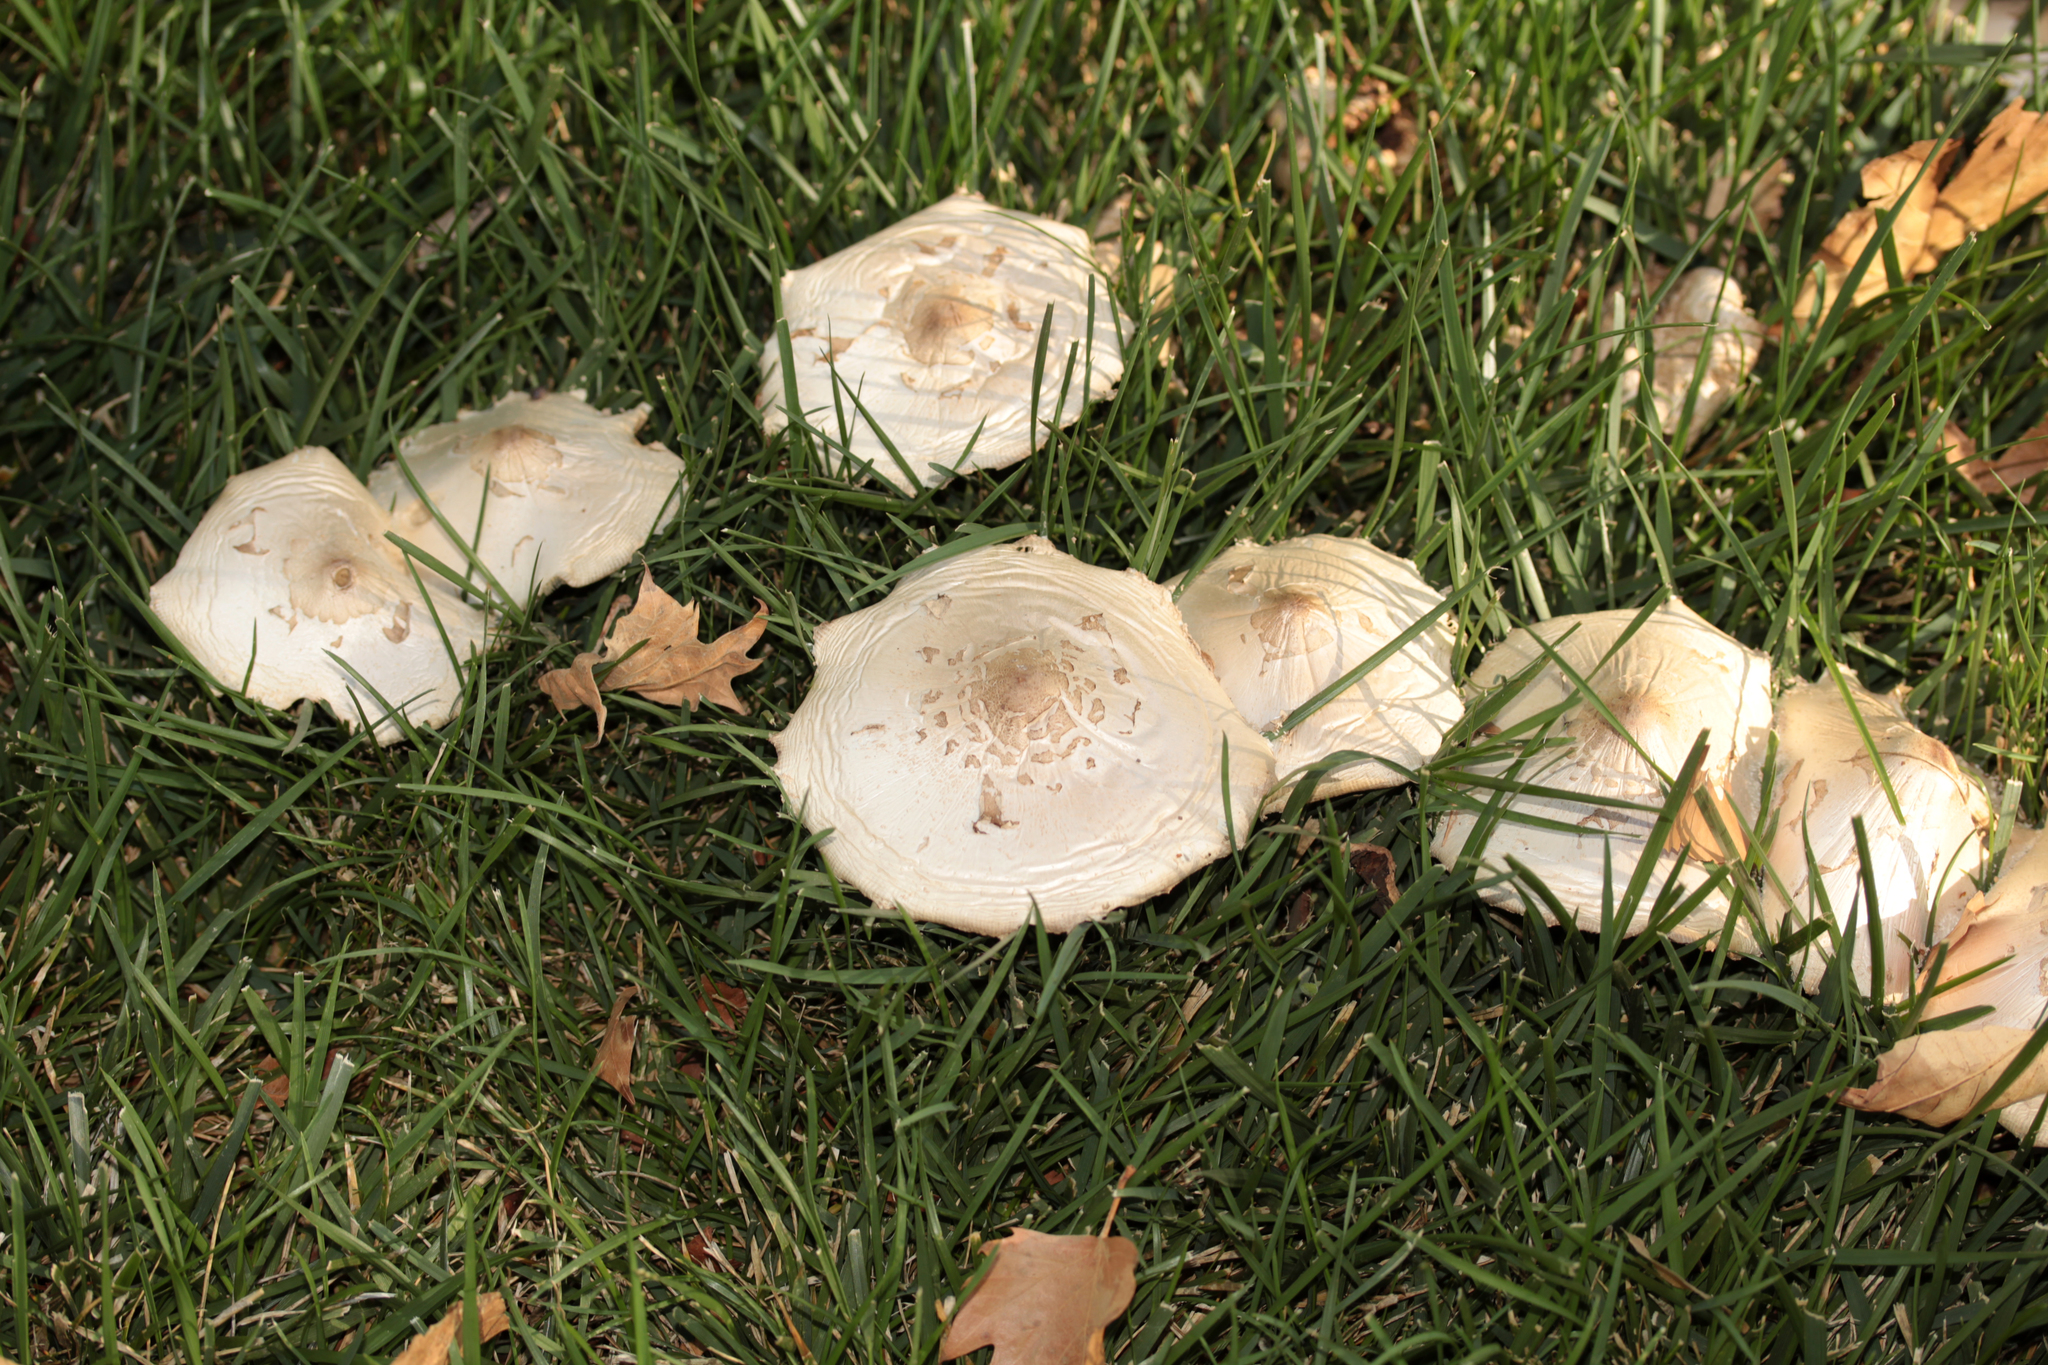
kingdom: Fungi
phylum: Basidiomycota
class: Agaricomycetes
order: Agaricales
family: Agaricaceae
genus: Chlorophyllum
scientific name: Chlorophyllum molybdites
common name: False parasol
